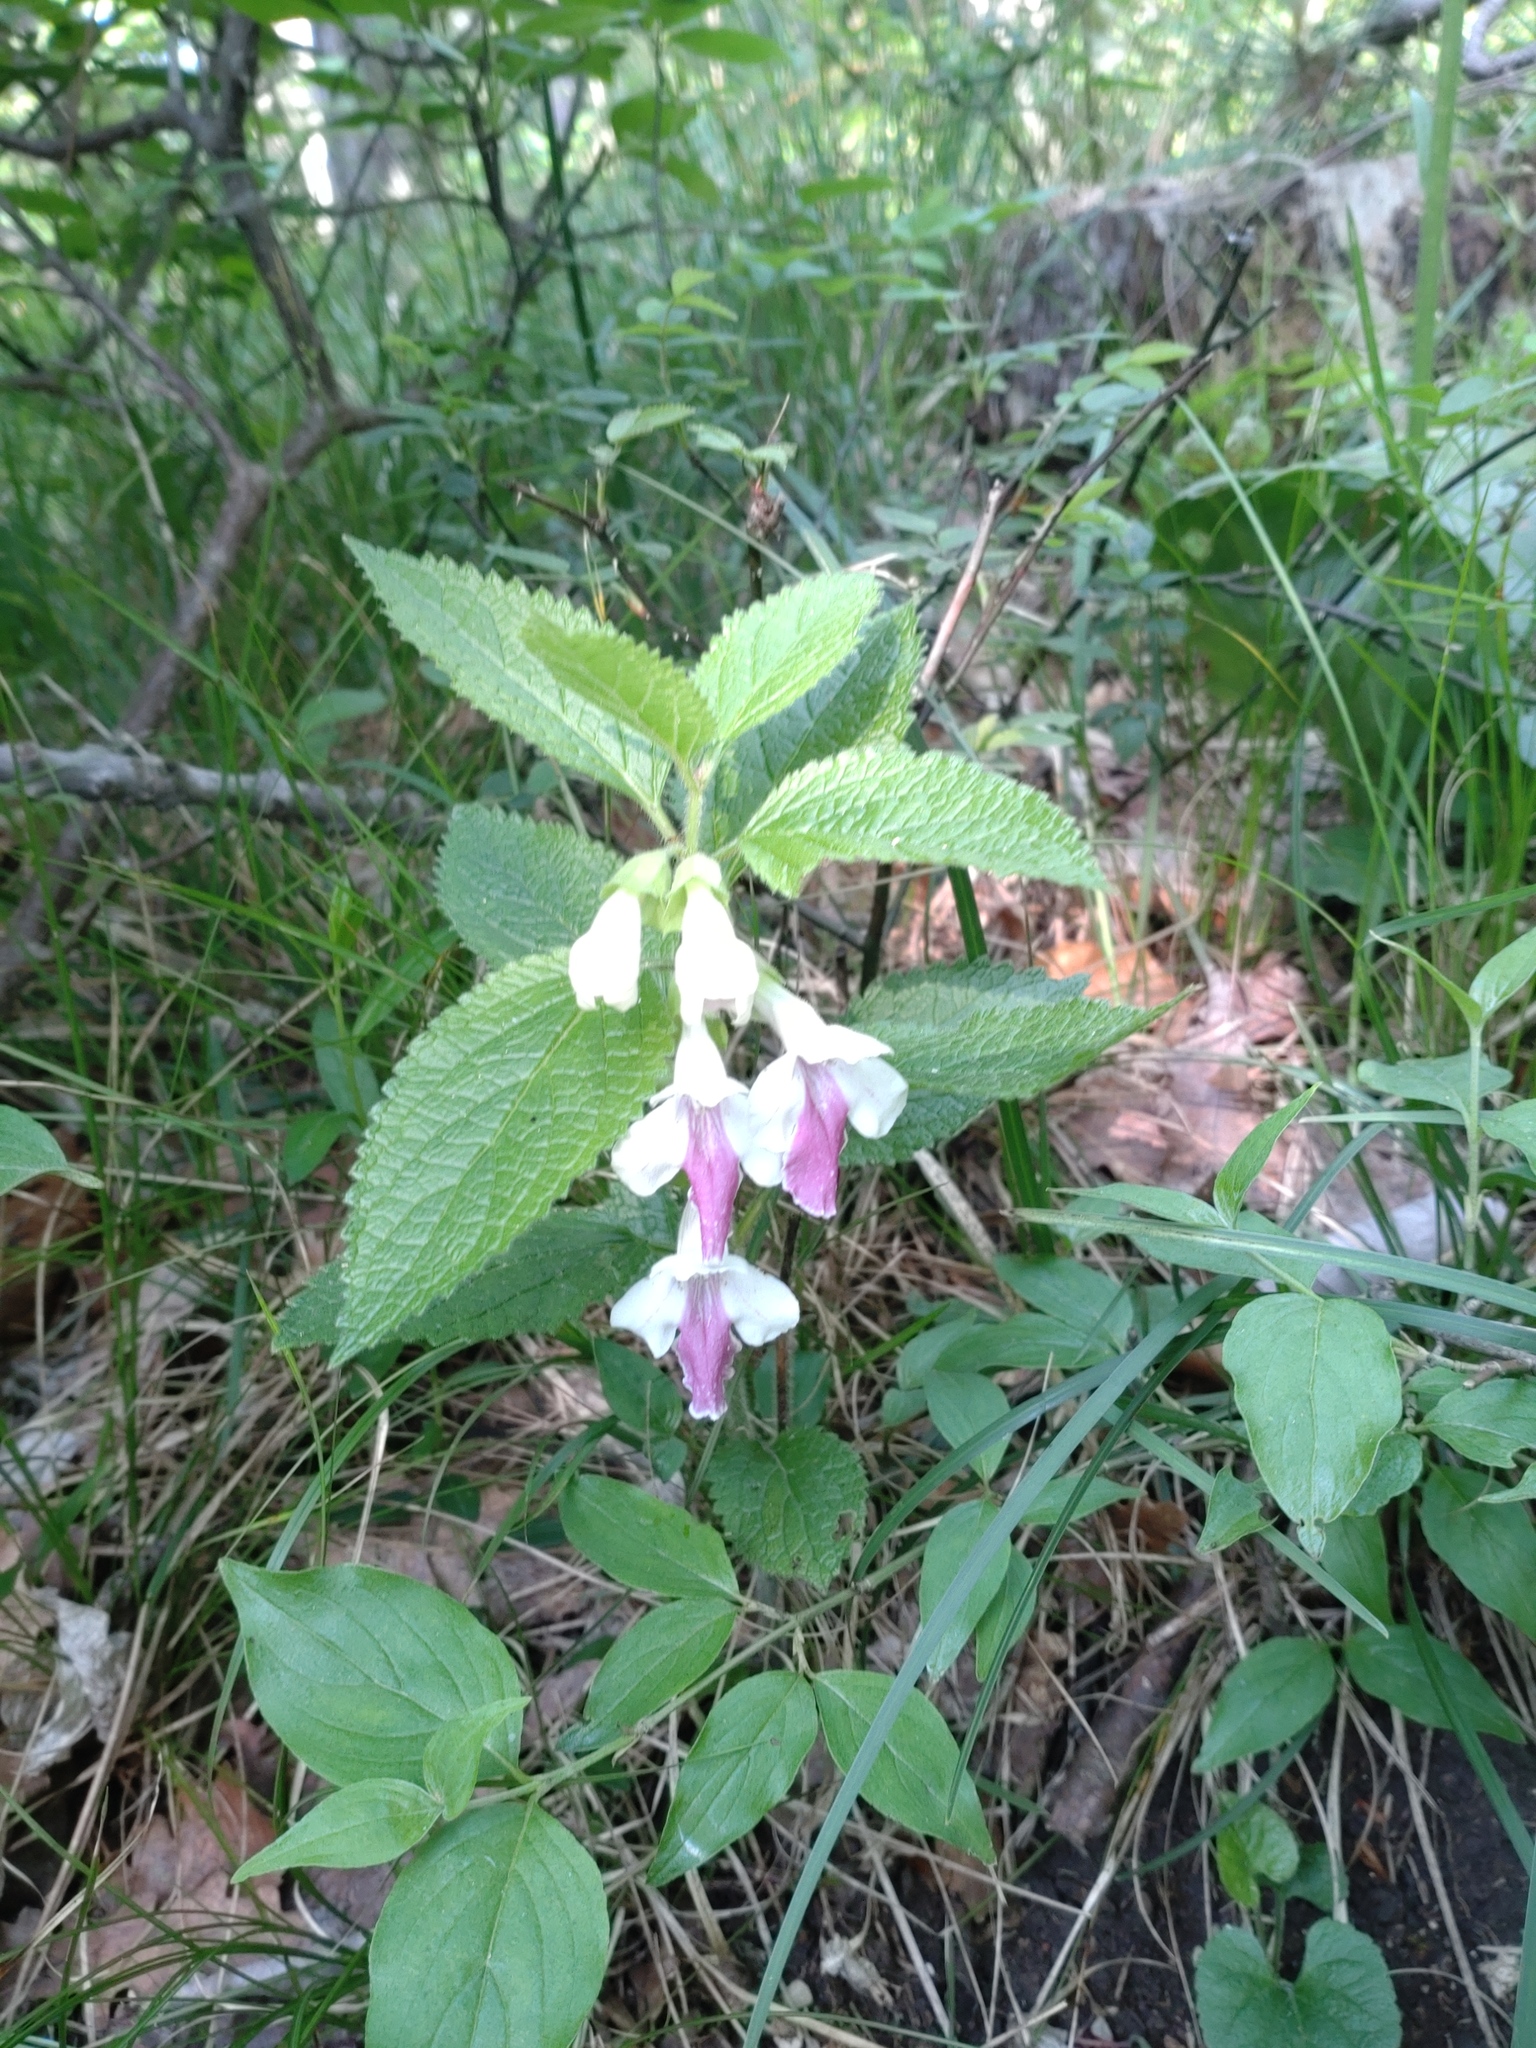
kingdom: Plantae
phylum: Tracheophyta
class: Magnoliopsida
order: Lamiales
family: Lamiaceae
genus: Melittis
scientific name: Melittis melissophyllum
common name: Bastard balm
